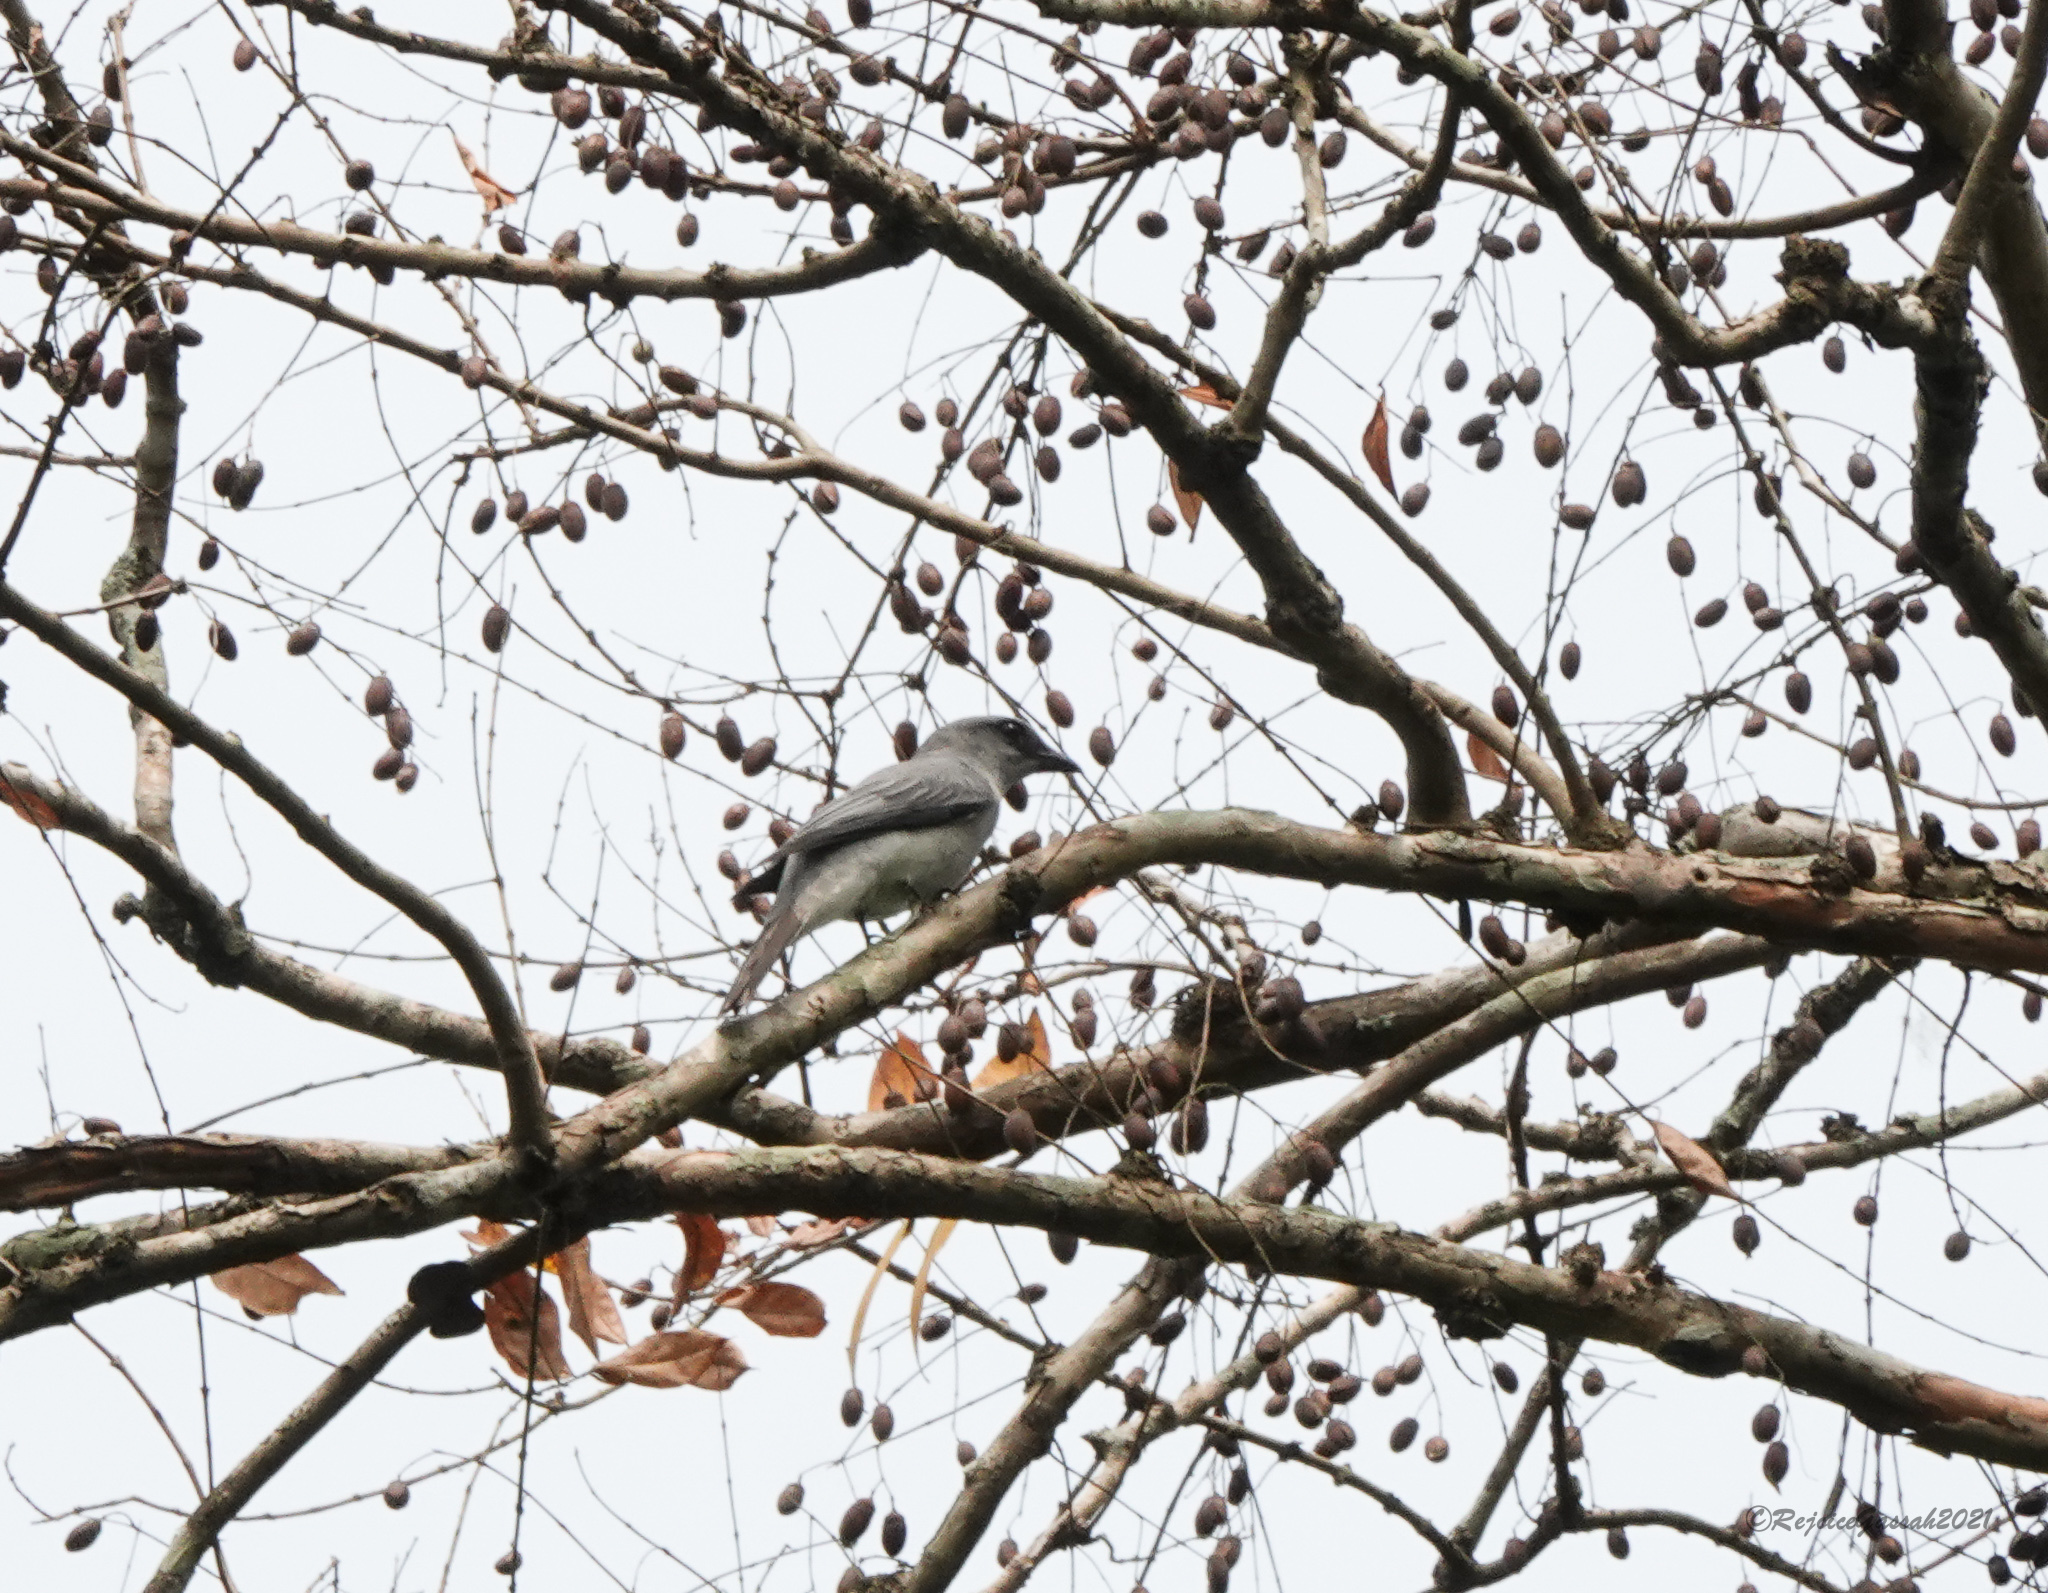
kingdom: Animalia
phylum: Chordata
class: Aves
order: Passeriformes
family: Campephagidae
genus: Coracina
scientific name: Coracina macei
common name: Large cuckooshrike
